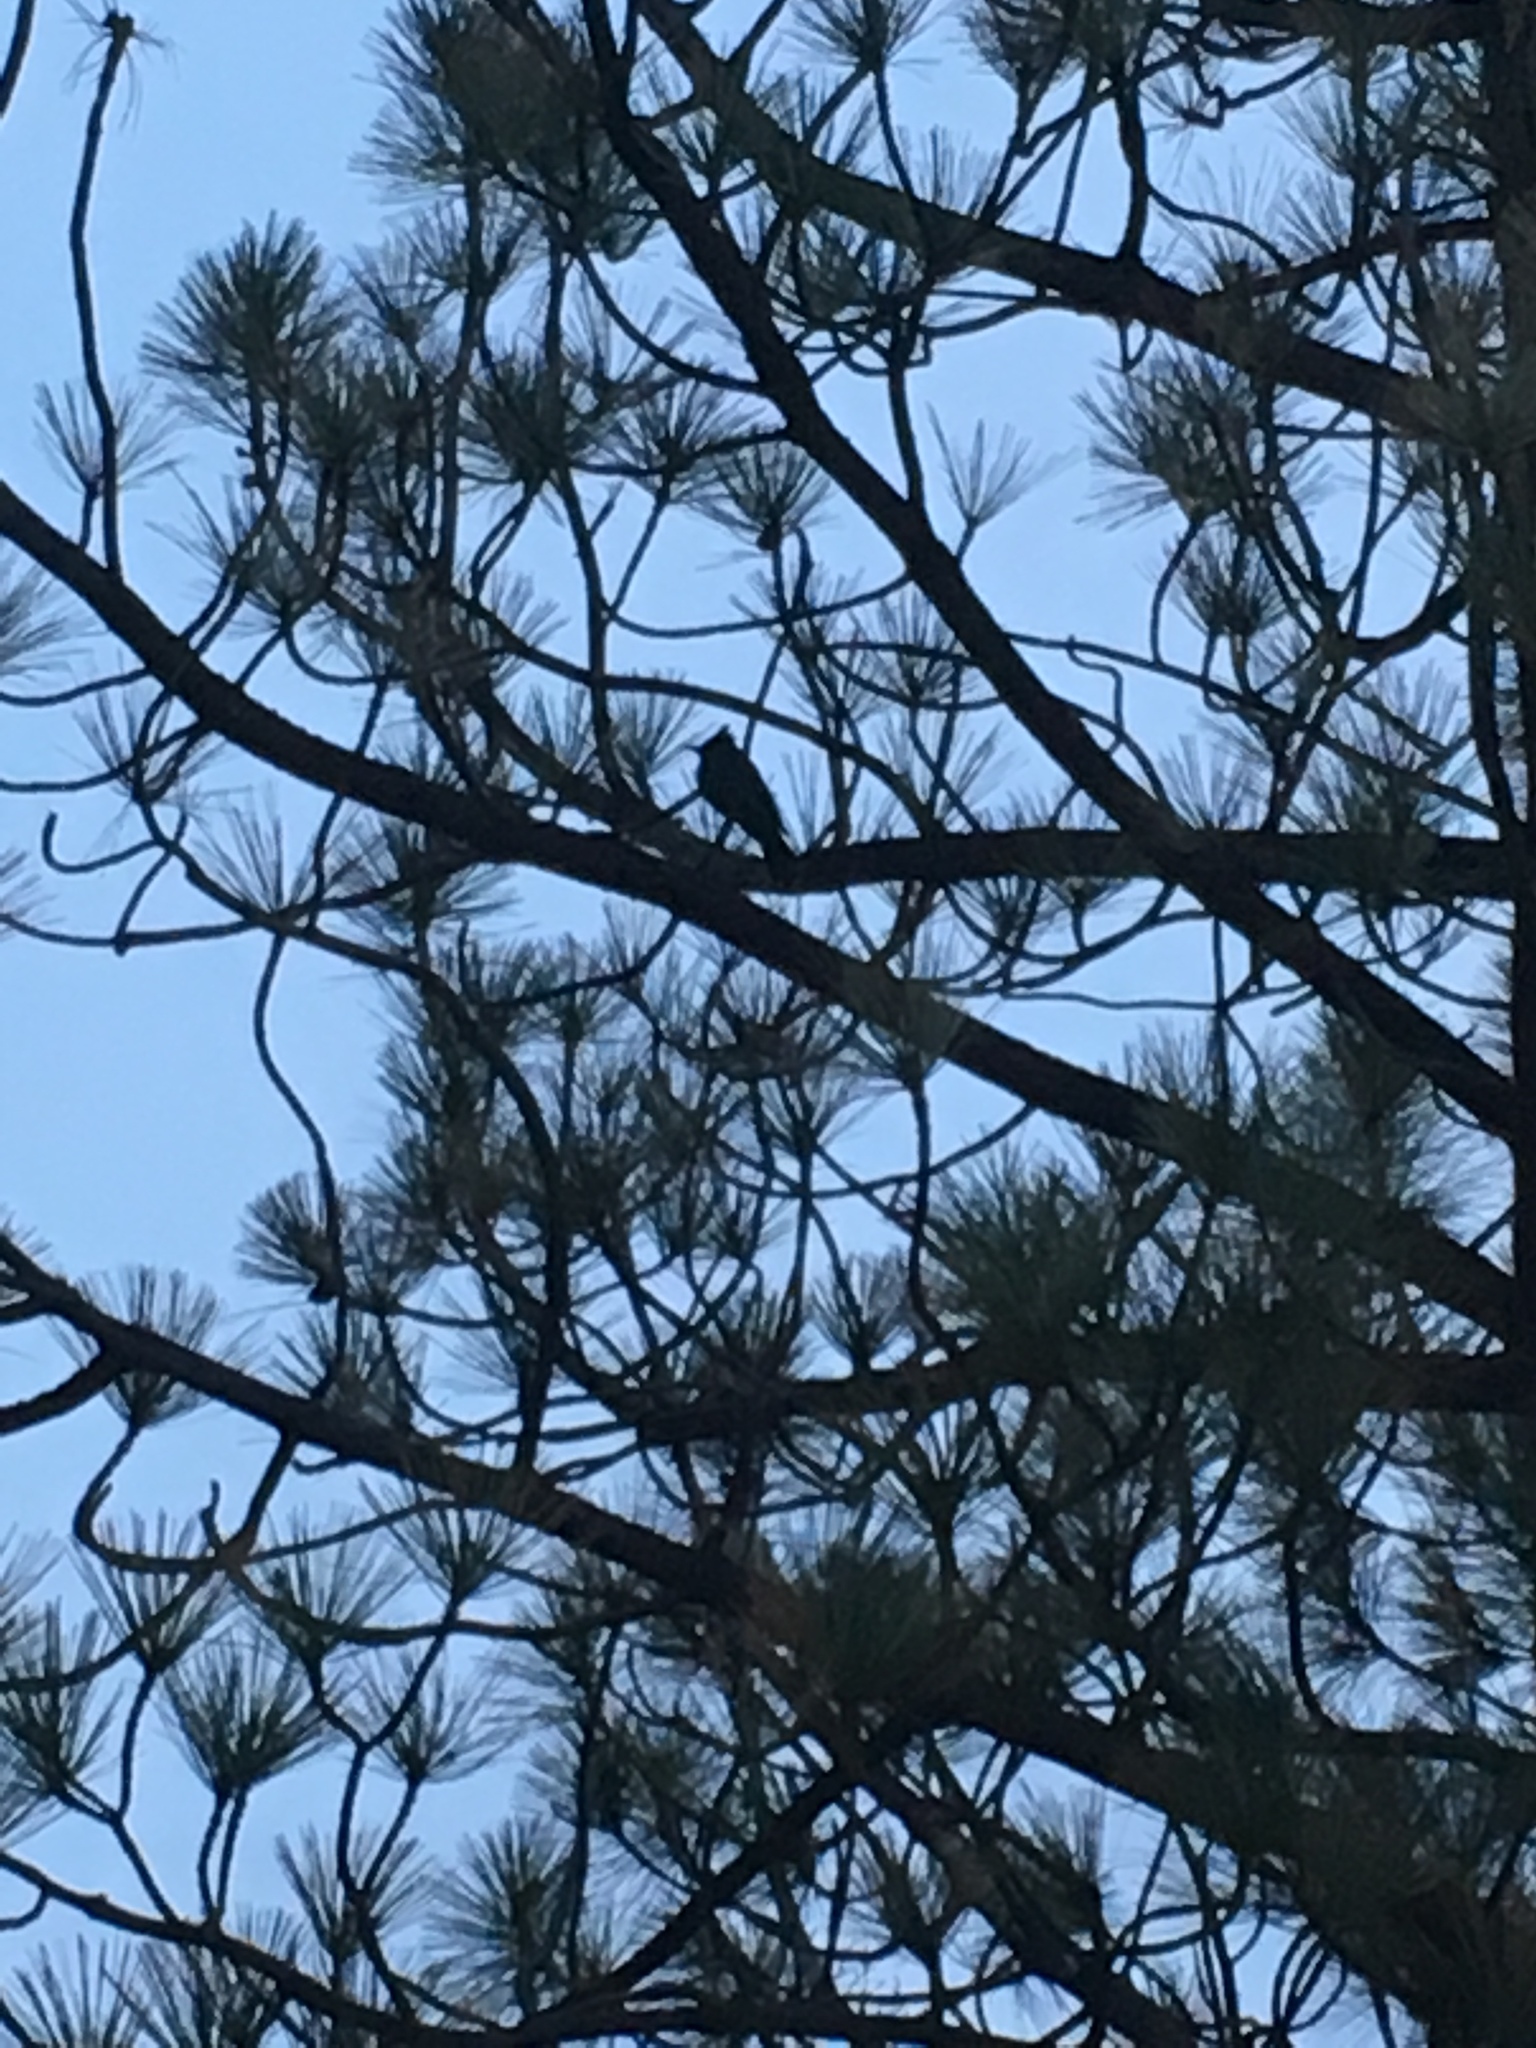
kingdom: Animalia
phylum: Chordata
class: Aves
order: Passeriformes
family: Corvidae
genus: Cyanocitta
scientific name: Cyanocitta stelleri
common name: Steller's jay
